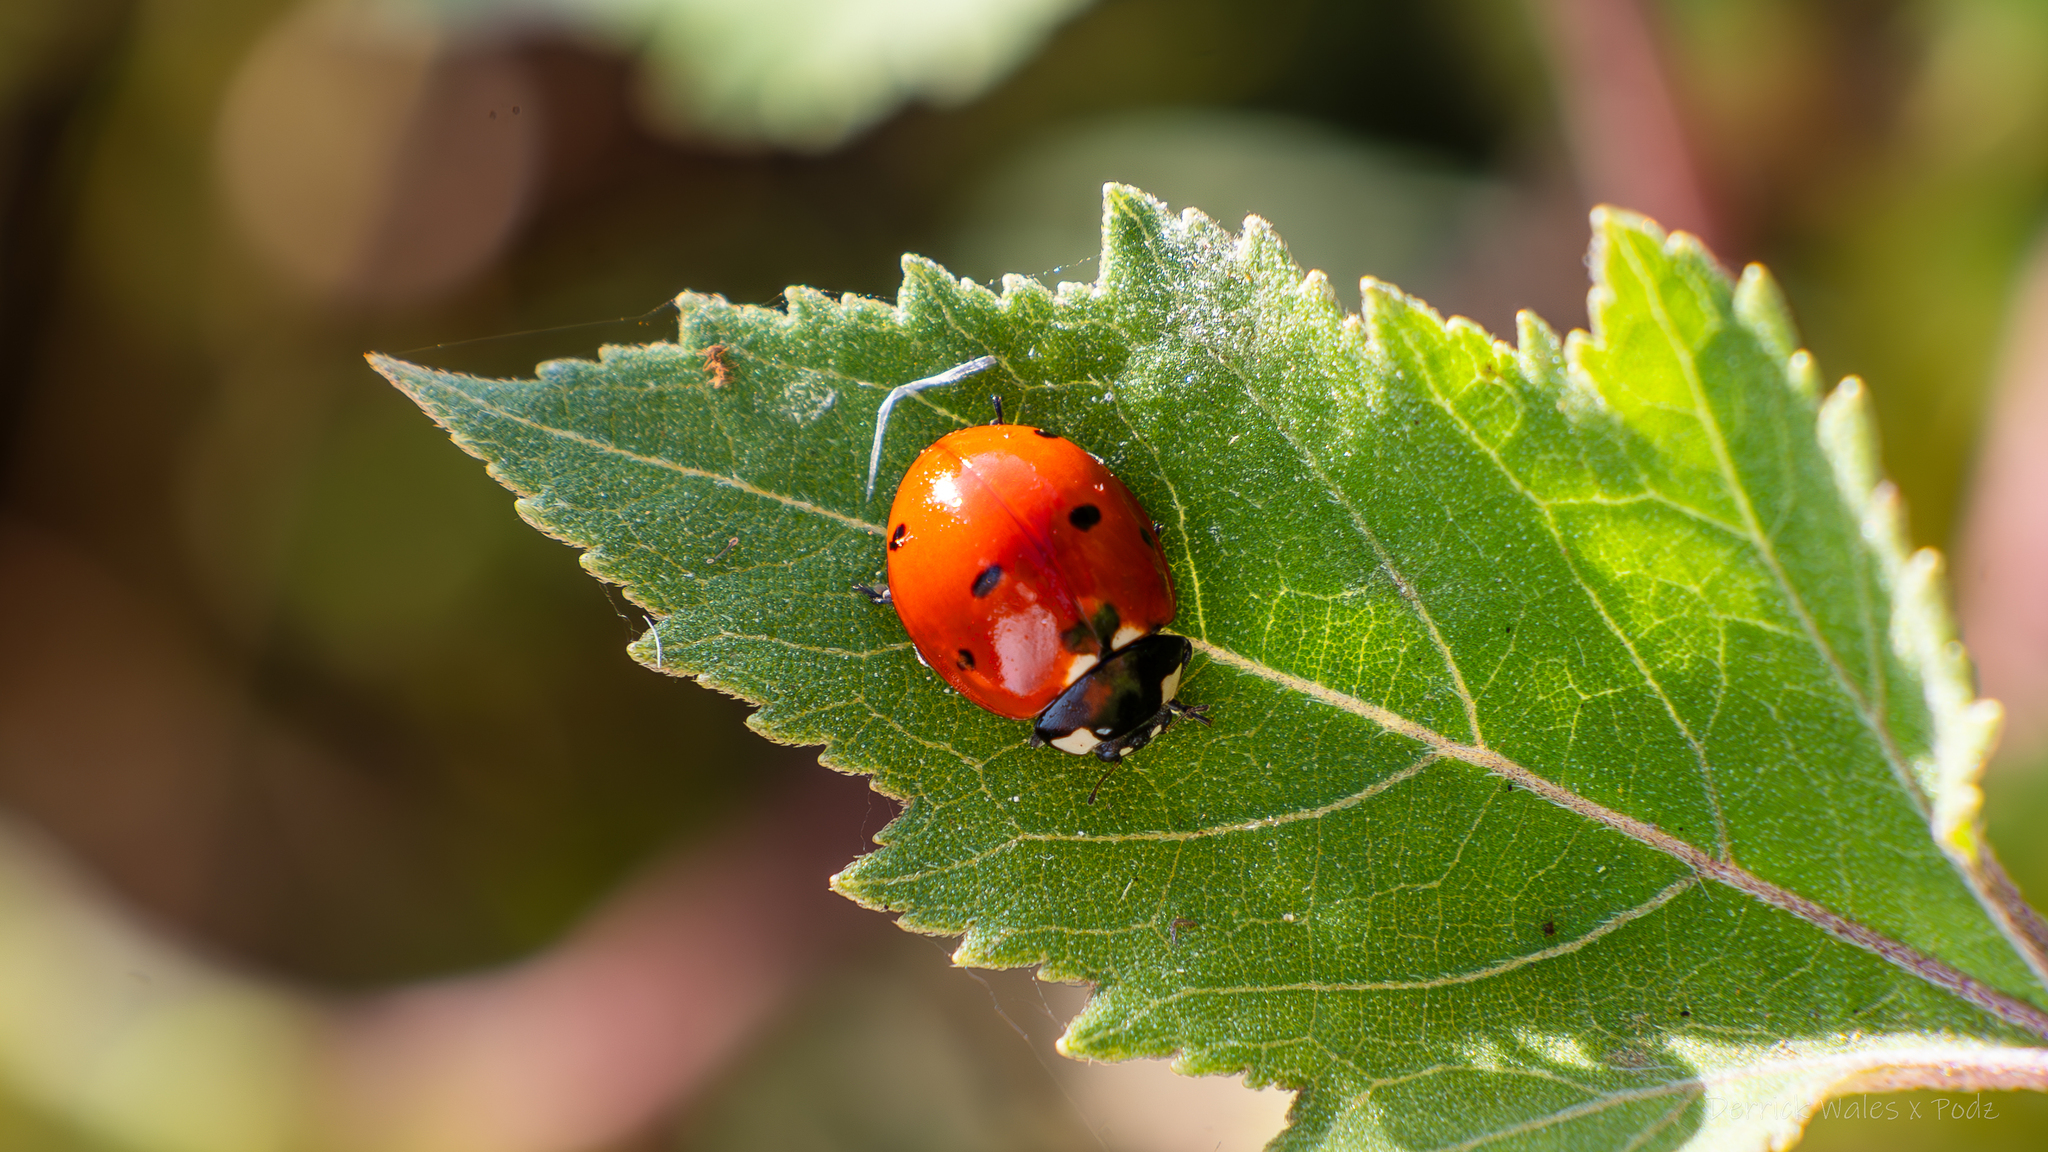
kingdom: Animalia
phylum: Arthropoda
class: Insecta
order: Coleoptera
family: Coccinellidae
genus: Coccinella
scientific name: Coccinella septempunctata
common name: Sevenspotted lady beetle
